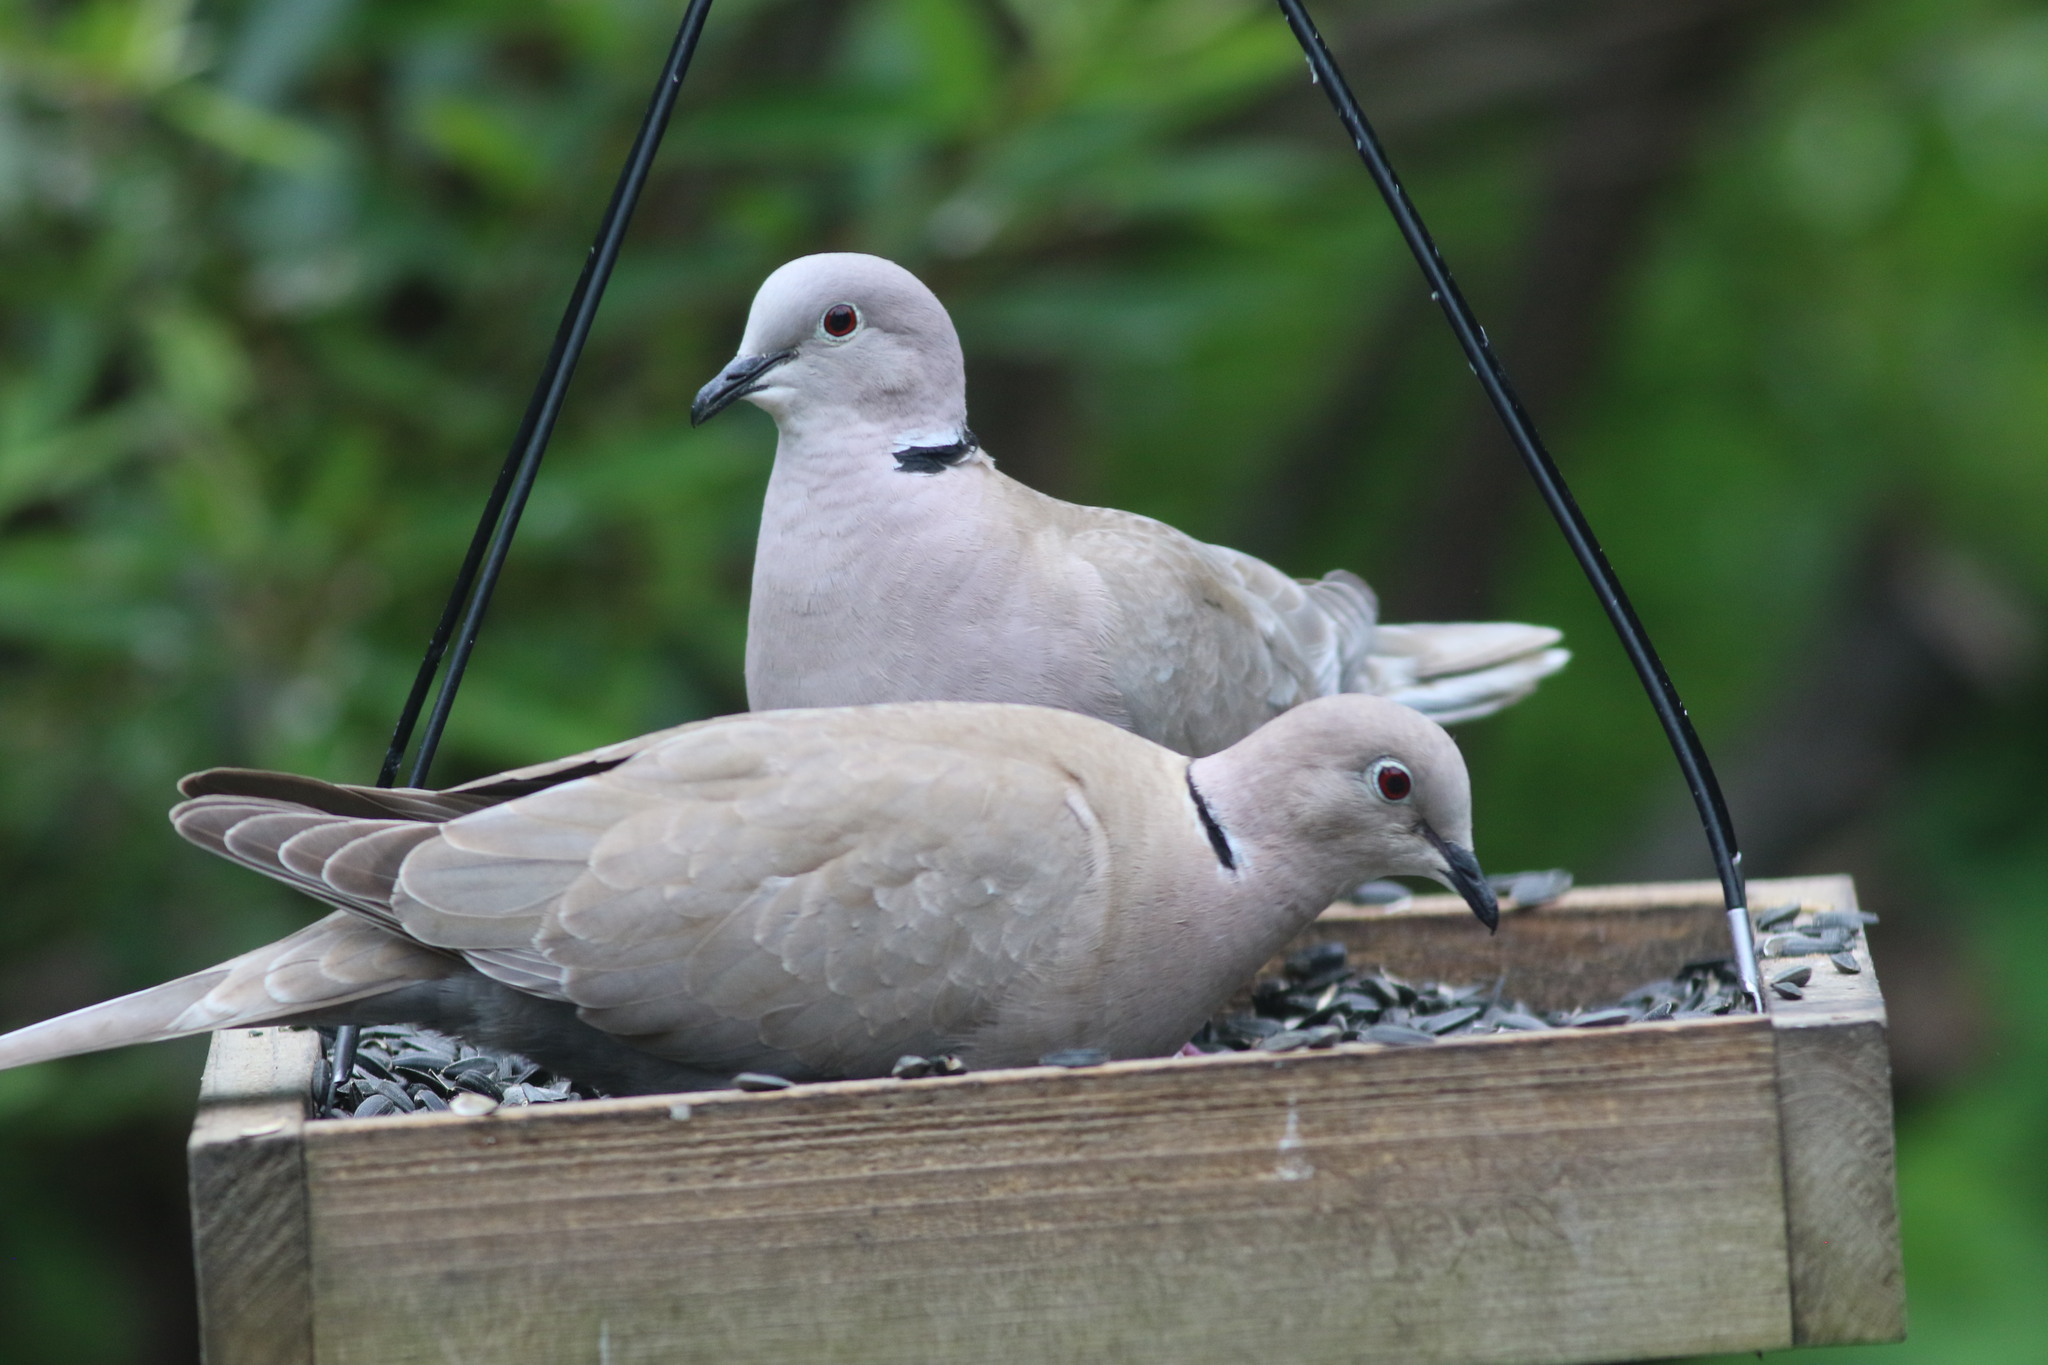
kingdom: Animalia
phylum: Chordata
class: Aves
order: Columbiformes
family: Columbidae
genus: Streptopelia
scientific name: Streptopelia decaocto
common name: Eurasian collared dove
